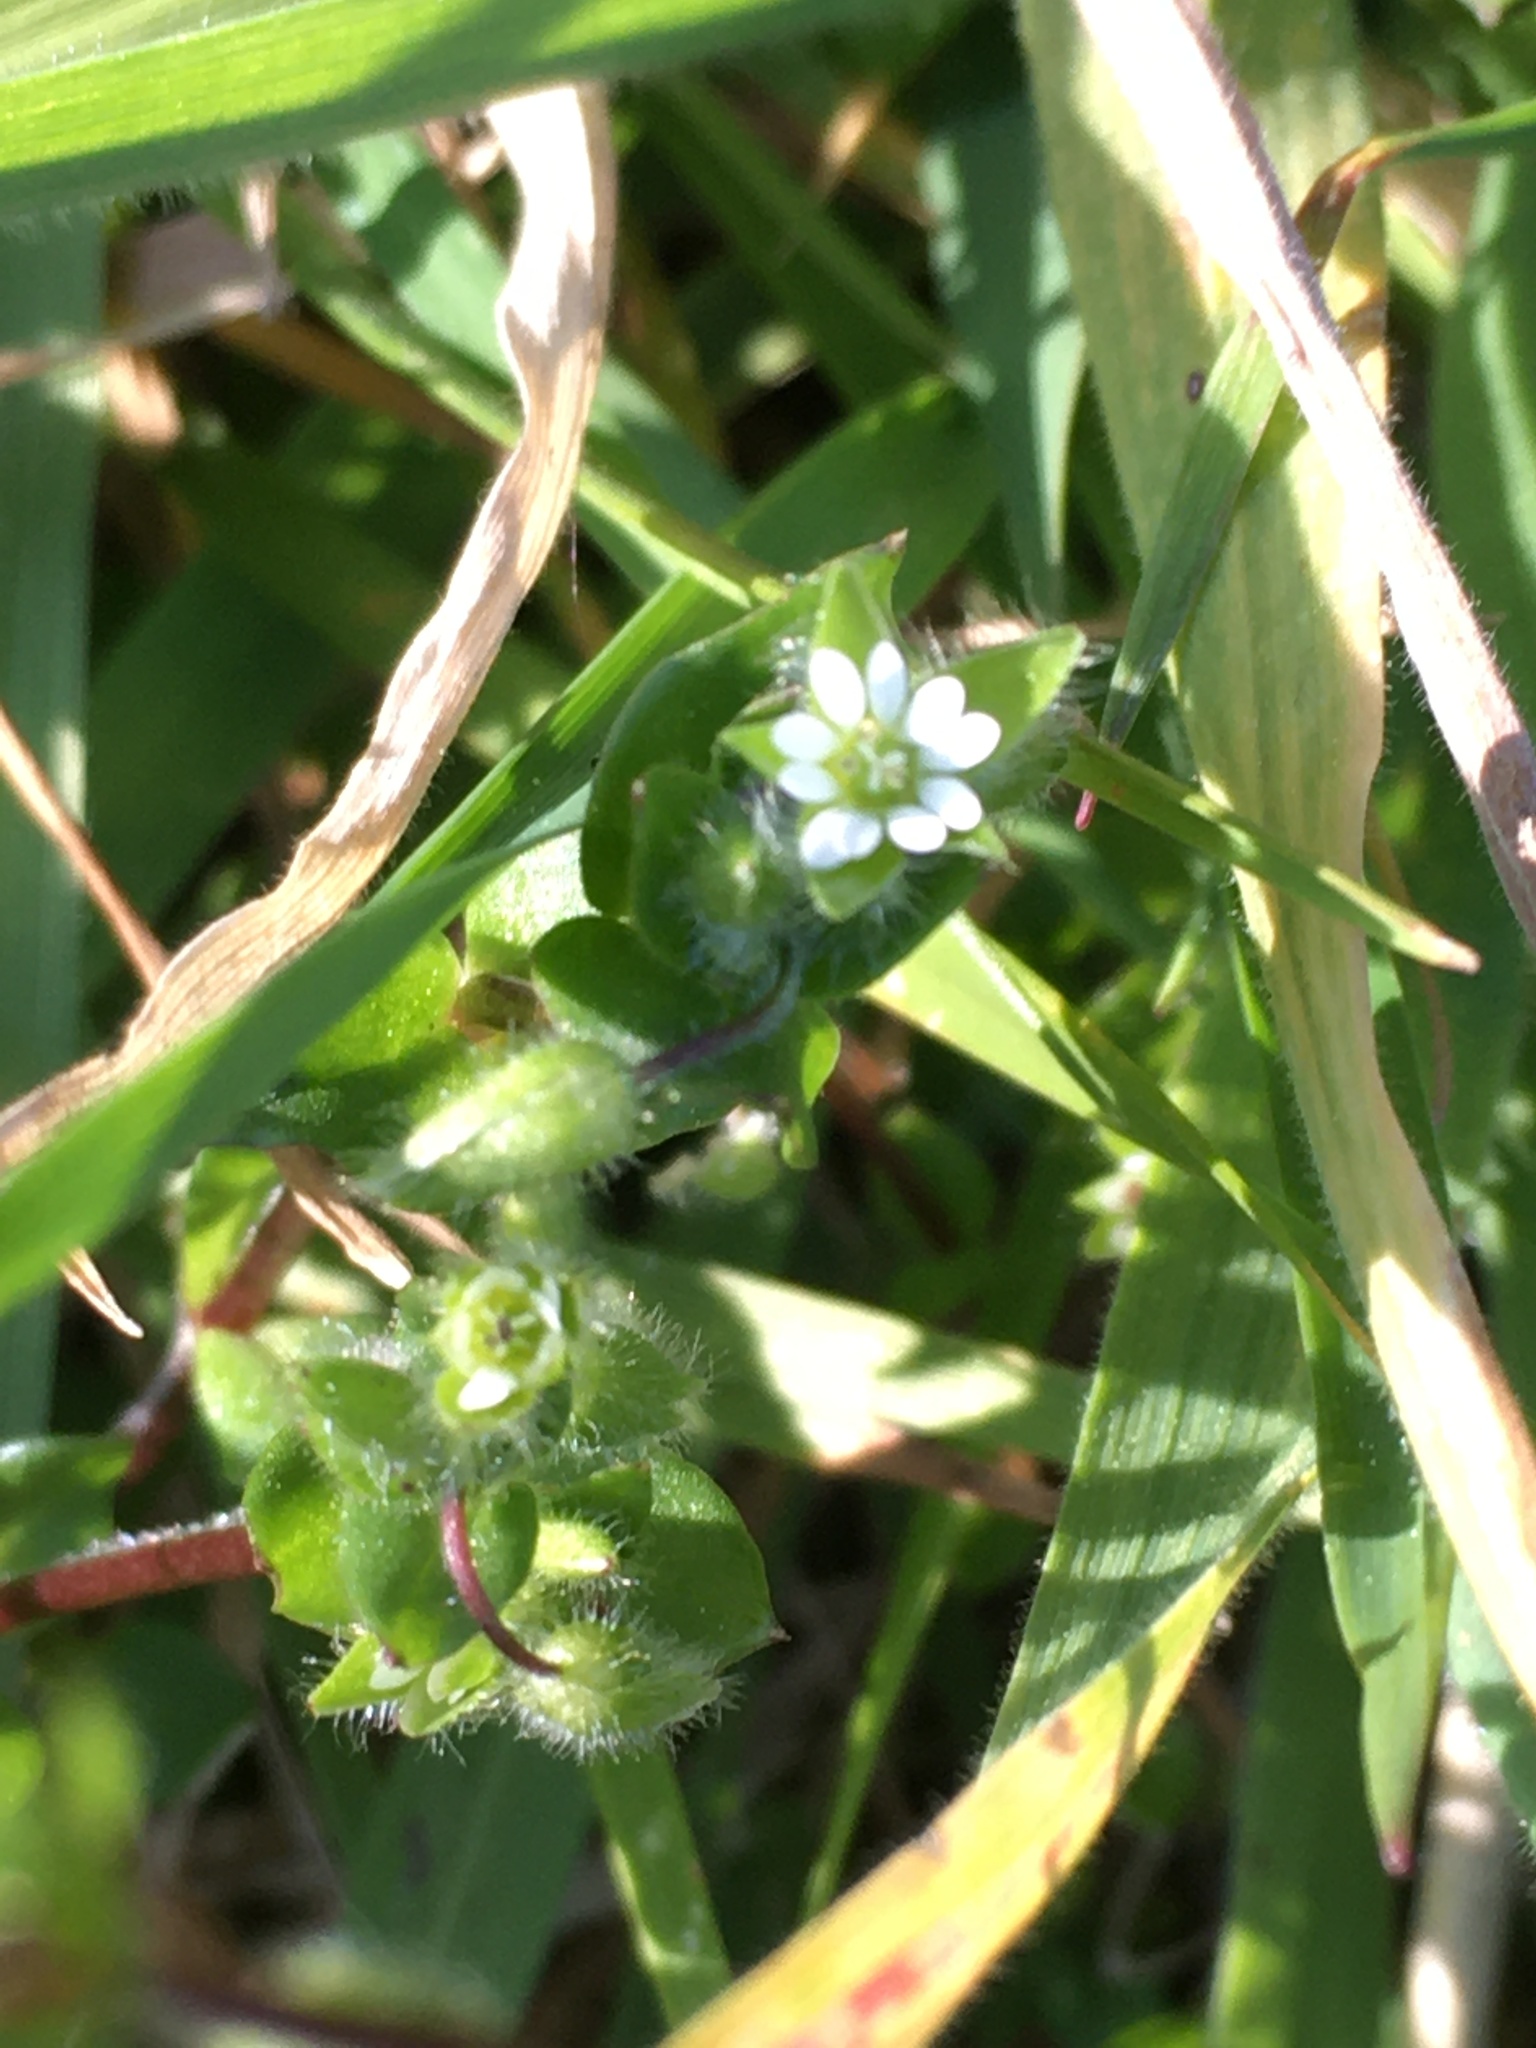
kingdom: Plantae
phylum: Tracheophyta
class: Magnoliopsida
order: Caryophyllales
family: Caryophyllaceae
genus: Stellaria
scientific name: Stellaria media
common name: Common chickweed
